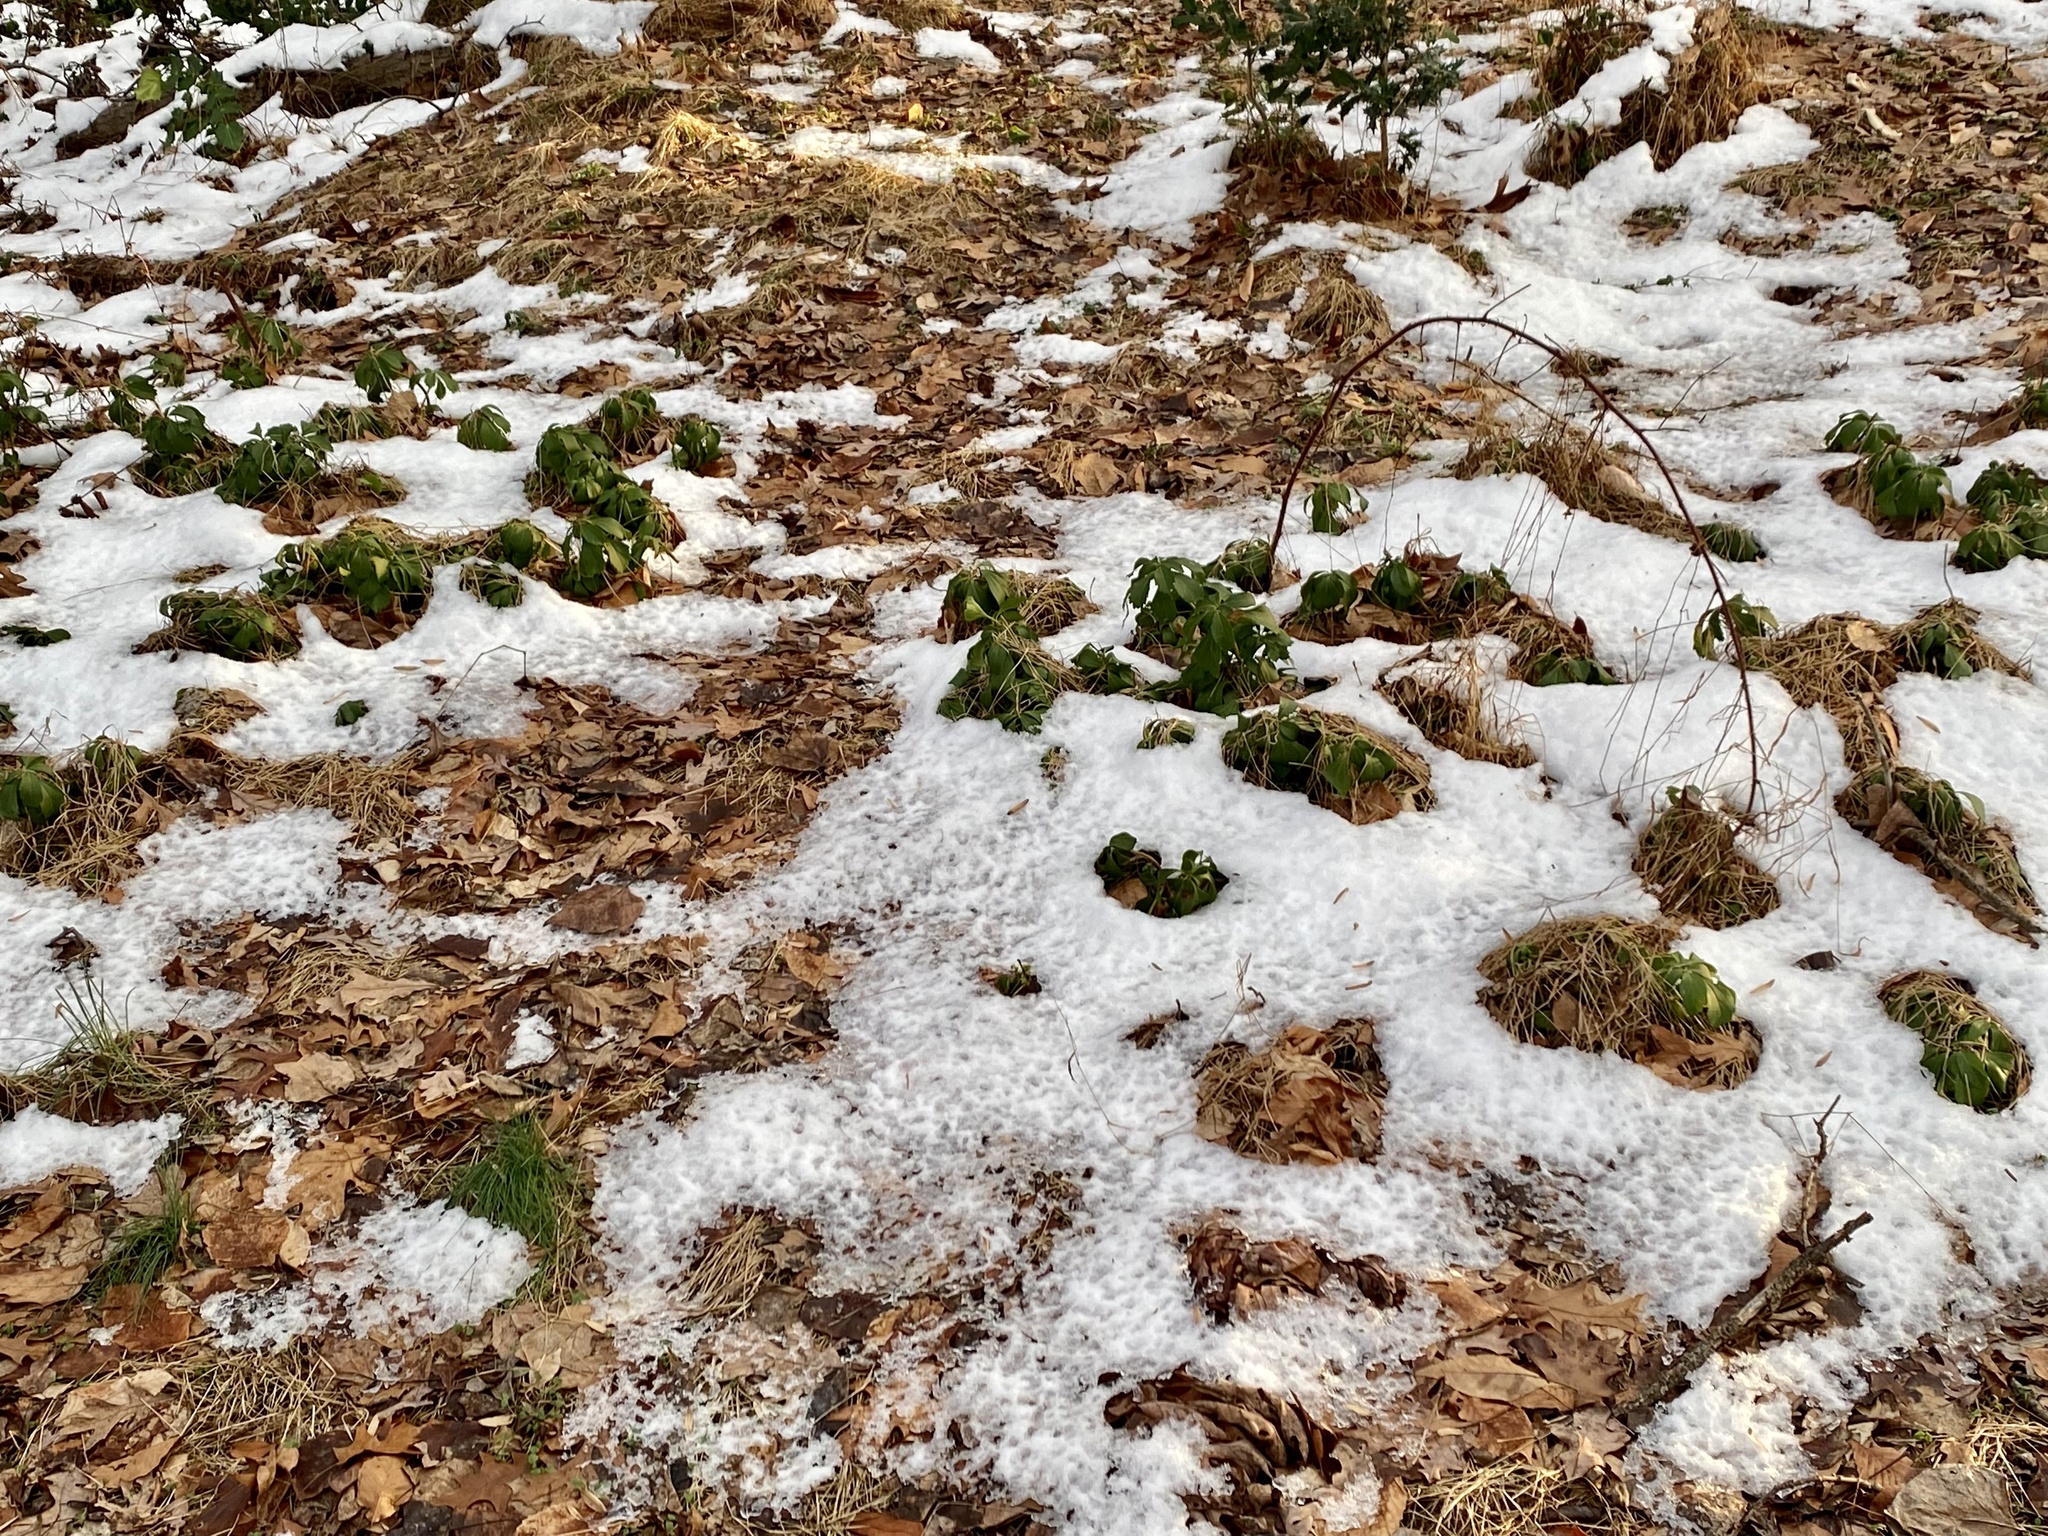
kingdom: Plantae
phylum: Tracheophyta
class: Magnoliopsida
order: Buxales
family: Buxaceae
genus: Pachysandra
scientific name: Pachysandra terminalis
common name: Japanese pachysandra
